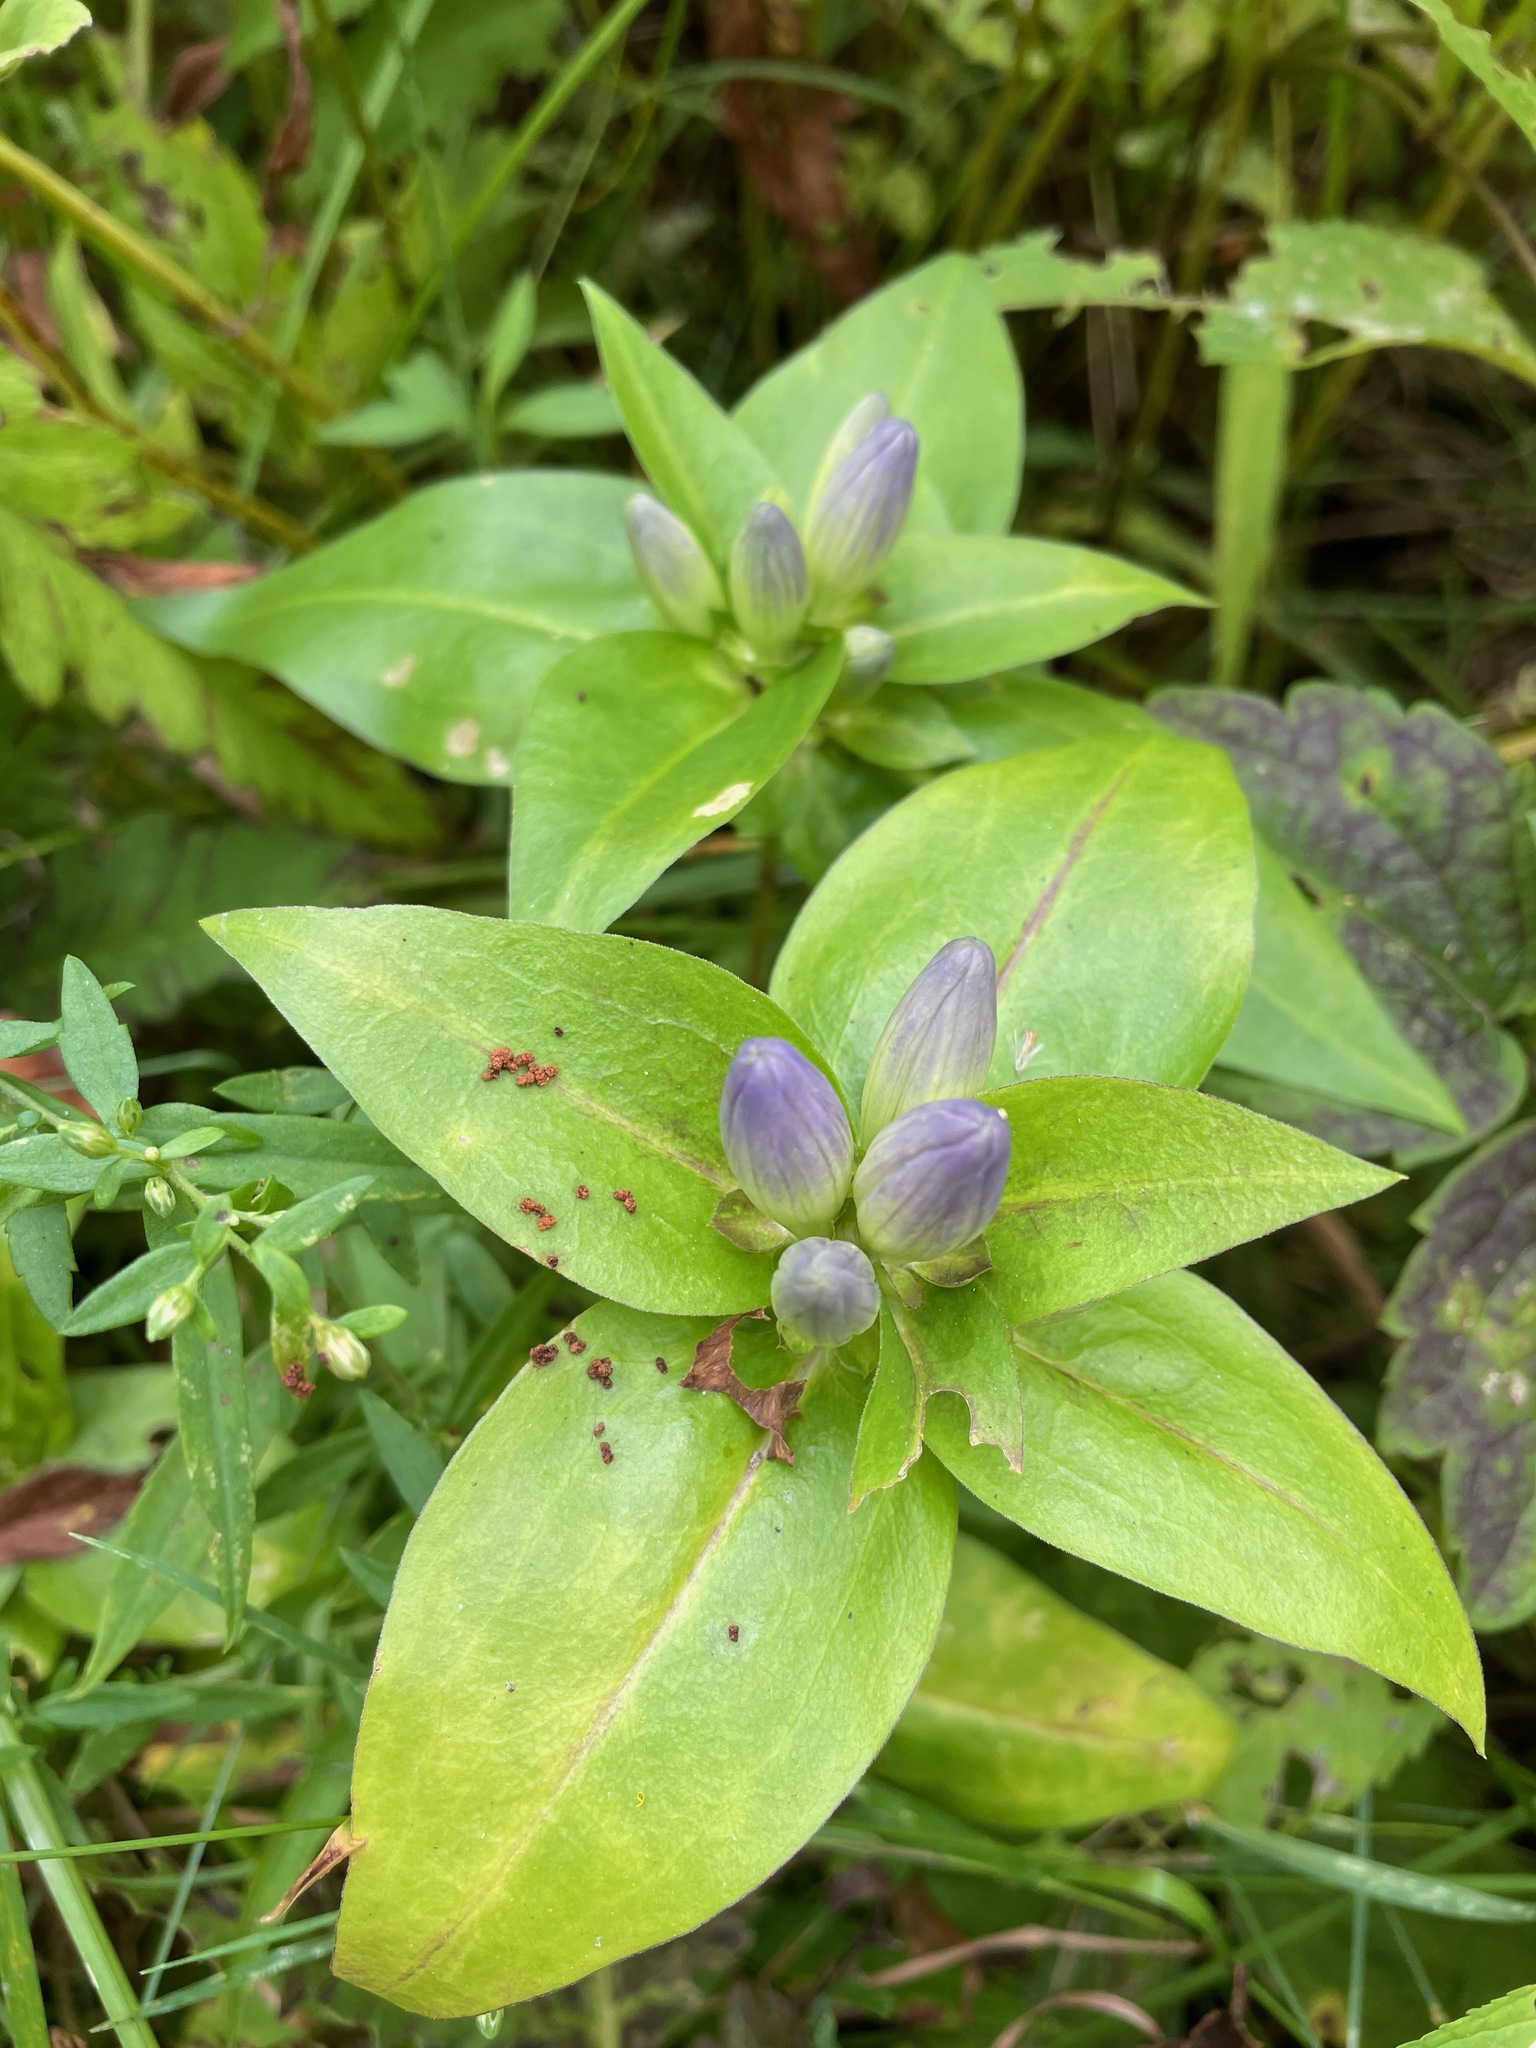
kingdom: Plantae
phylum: Tracheophyta
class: Magnoliopsida
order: Gentianales
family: Gentianaceae
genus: Gentiana
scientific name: Gentiana clausa
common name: Blind gentian
